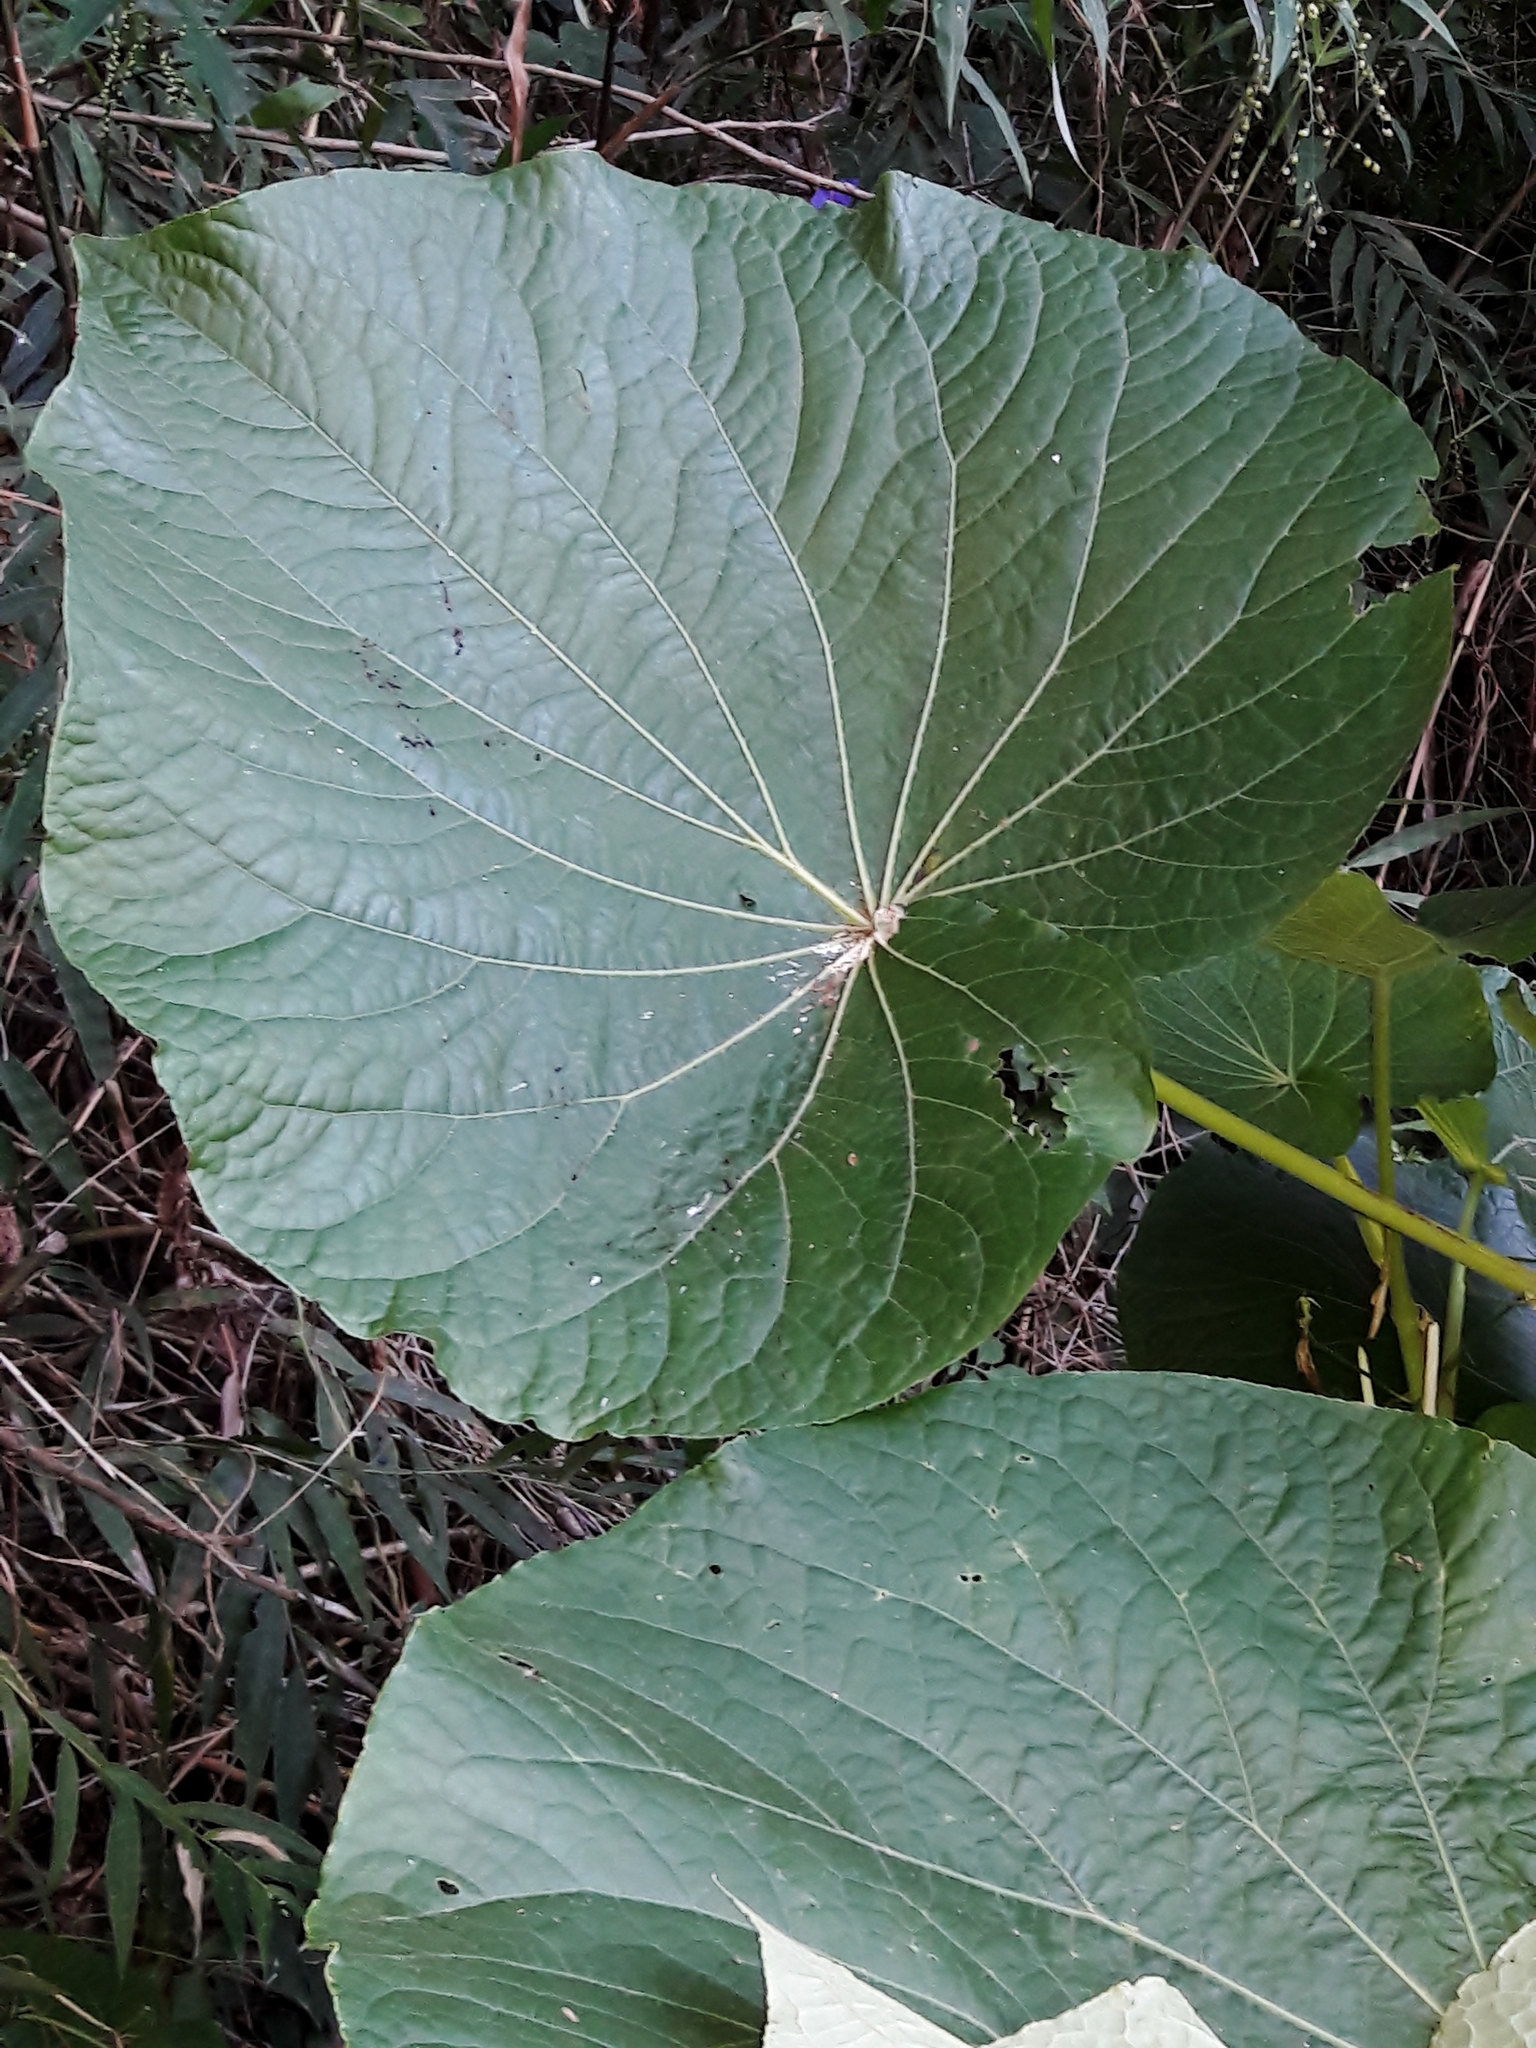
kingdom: Plantae
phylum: Tracheophyta
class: Magnoliopsida
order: Piperales
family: Piperaceae
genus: Piper
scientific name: Piper umbellatum
